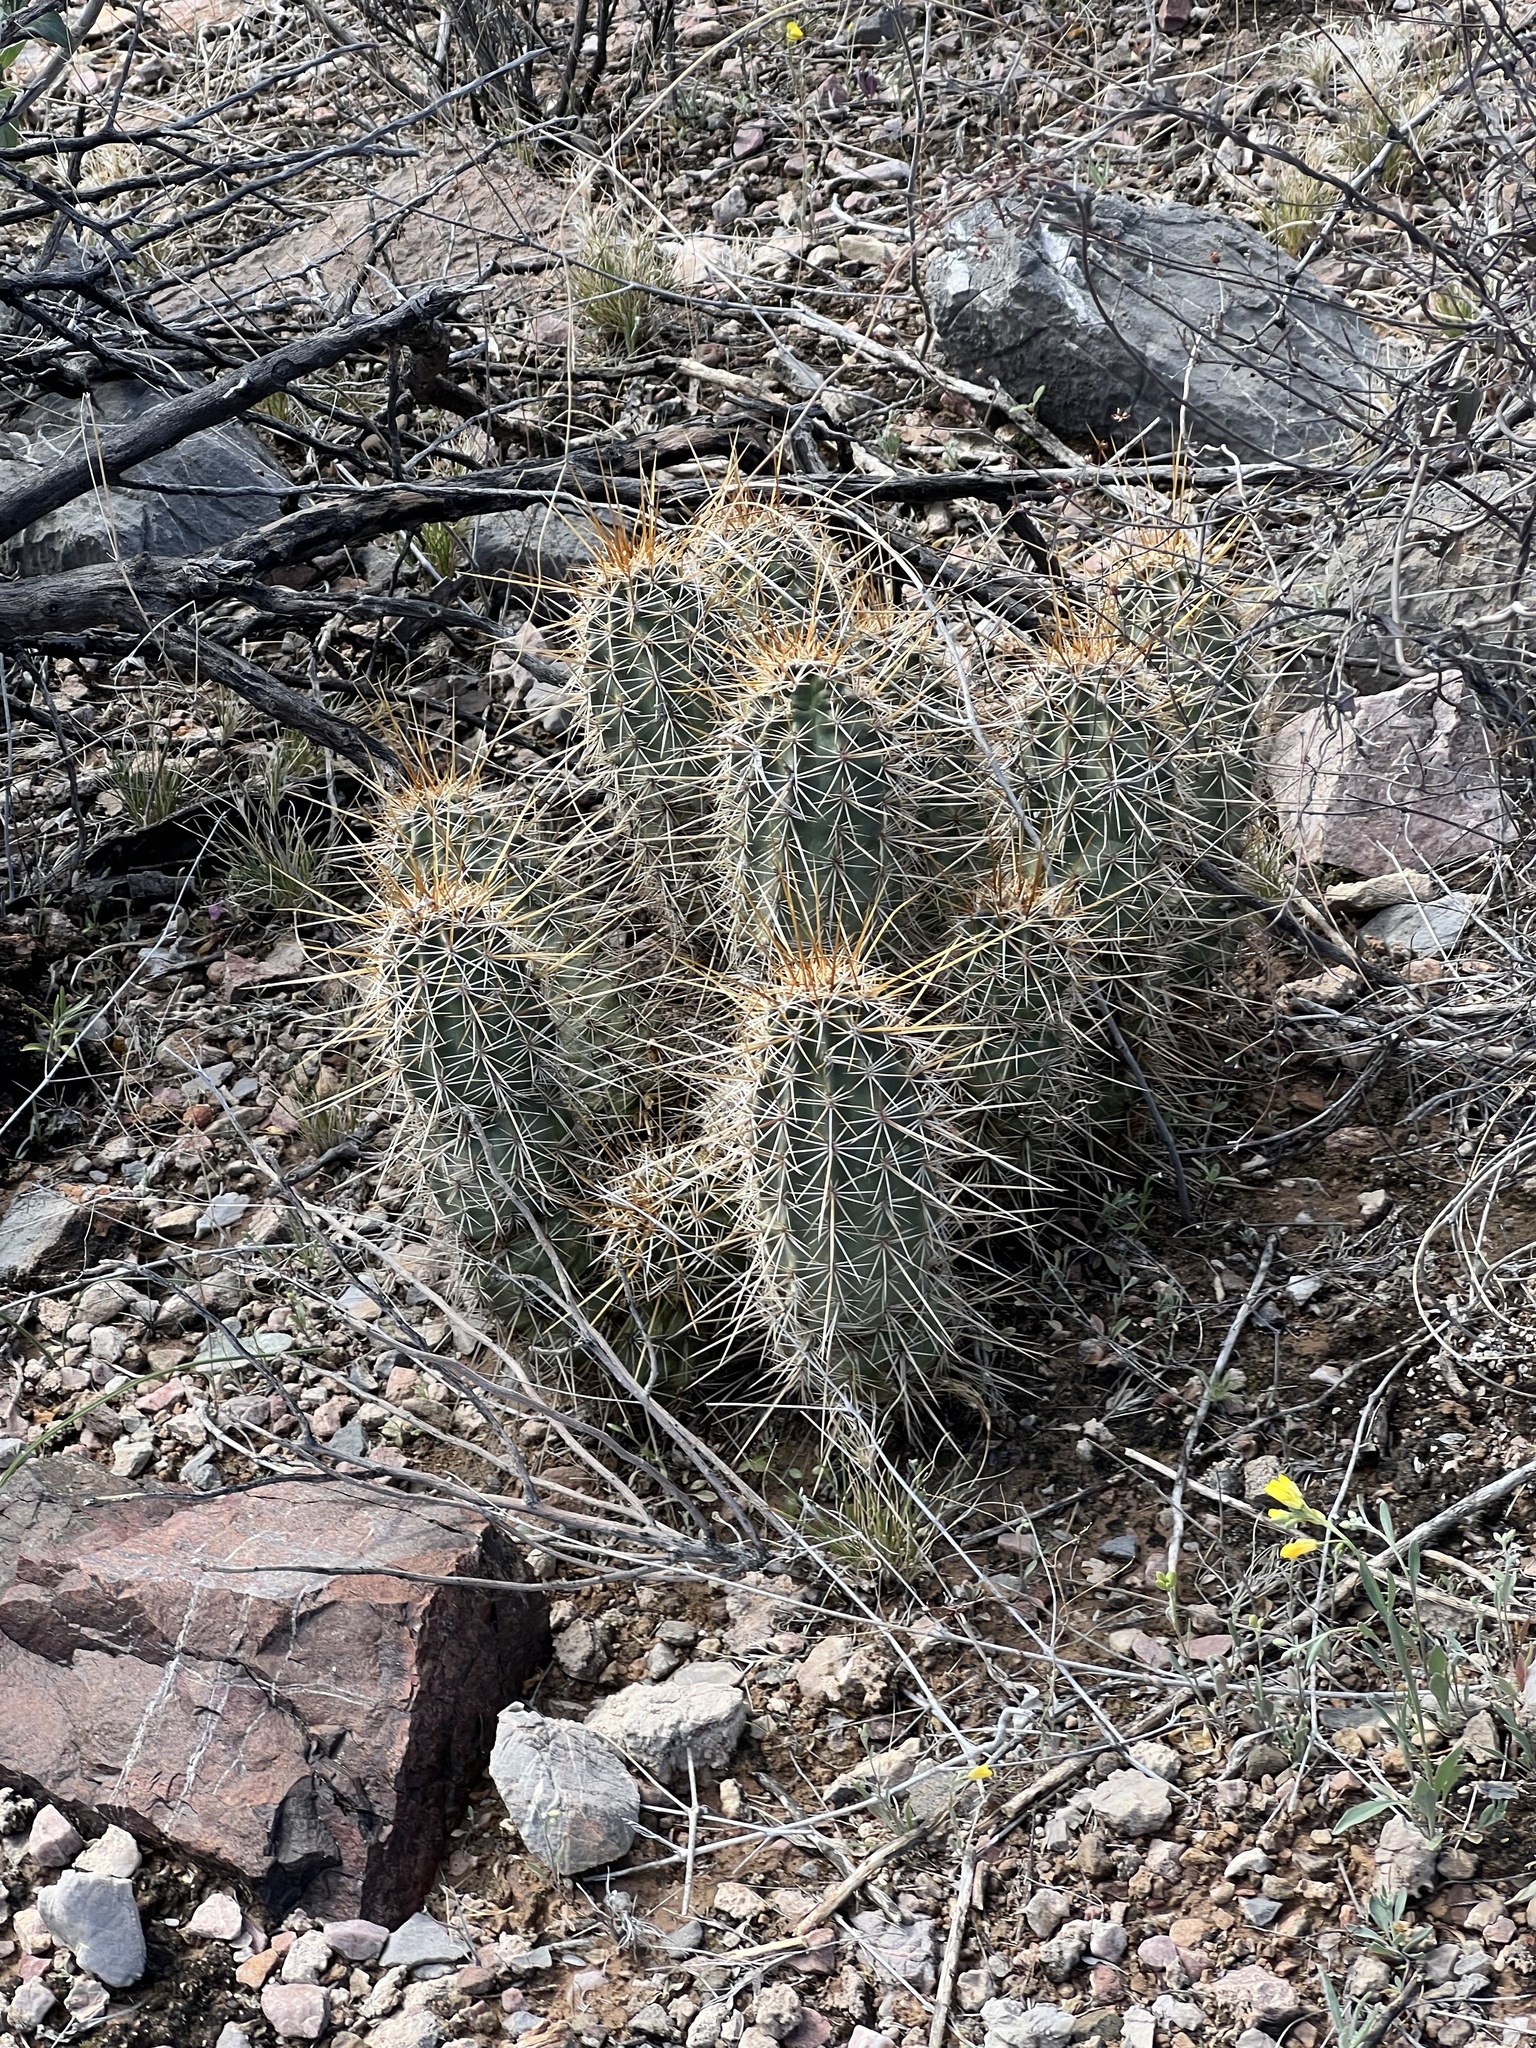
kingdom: Plantae
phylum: Tracheophyta
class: Magnoliopsida
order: Caryophyllales
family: Cactaceae
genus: Echinocereus
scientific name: Echinocereus fasciculatus
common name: Bundle hedgehog
